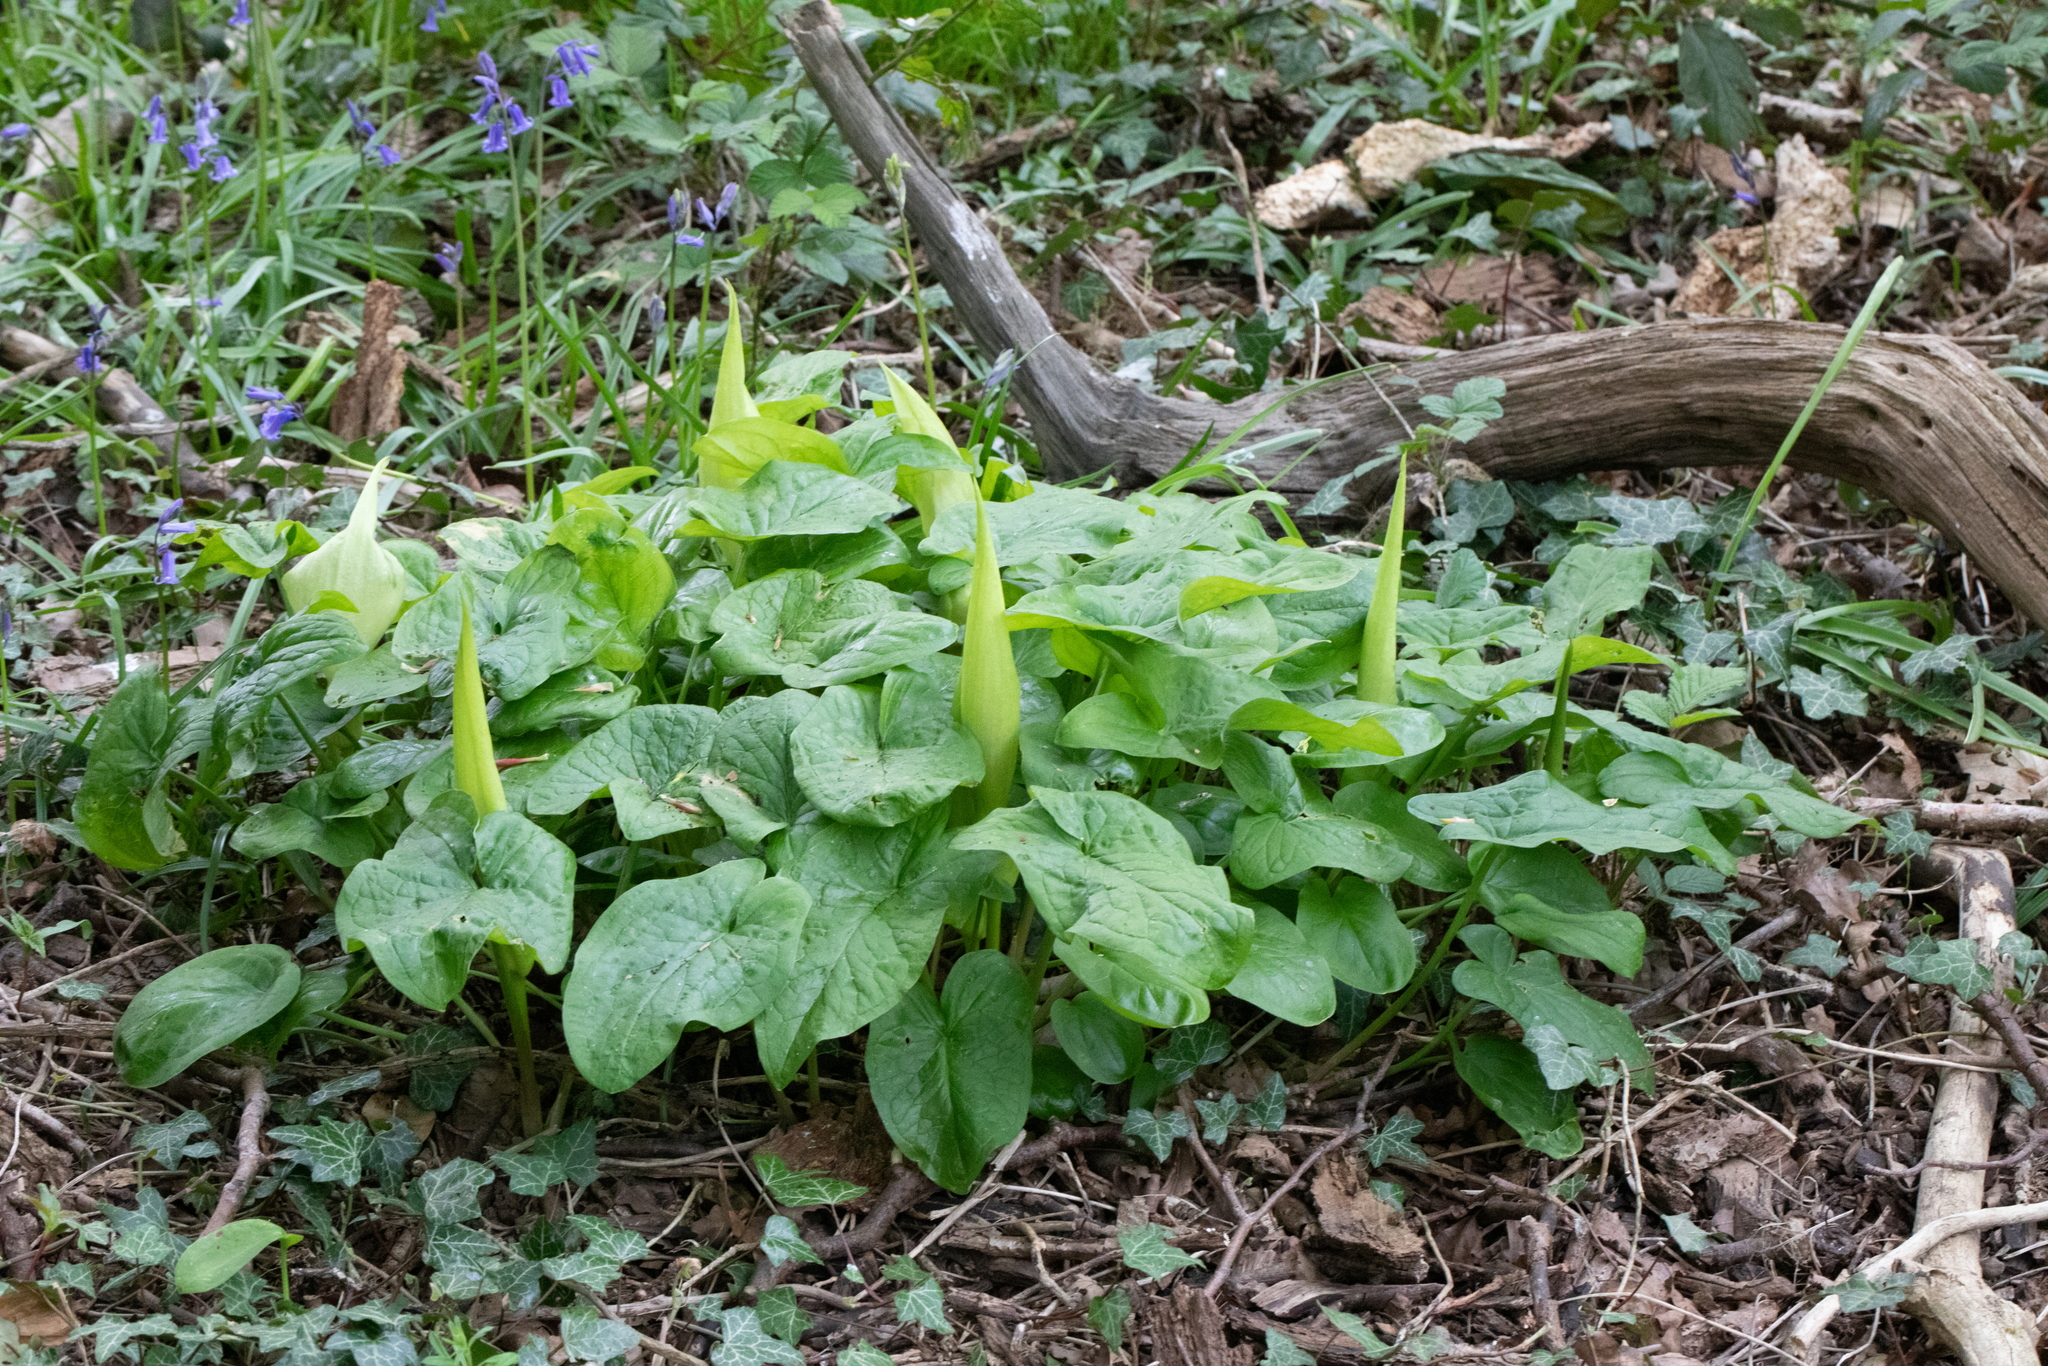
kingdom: Plantae
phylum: Tracheophyta
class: Liliopsida
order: Alismatales
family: Araceae
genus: Arum
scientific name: Arum maculatum
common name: Lords-and-ladies
